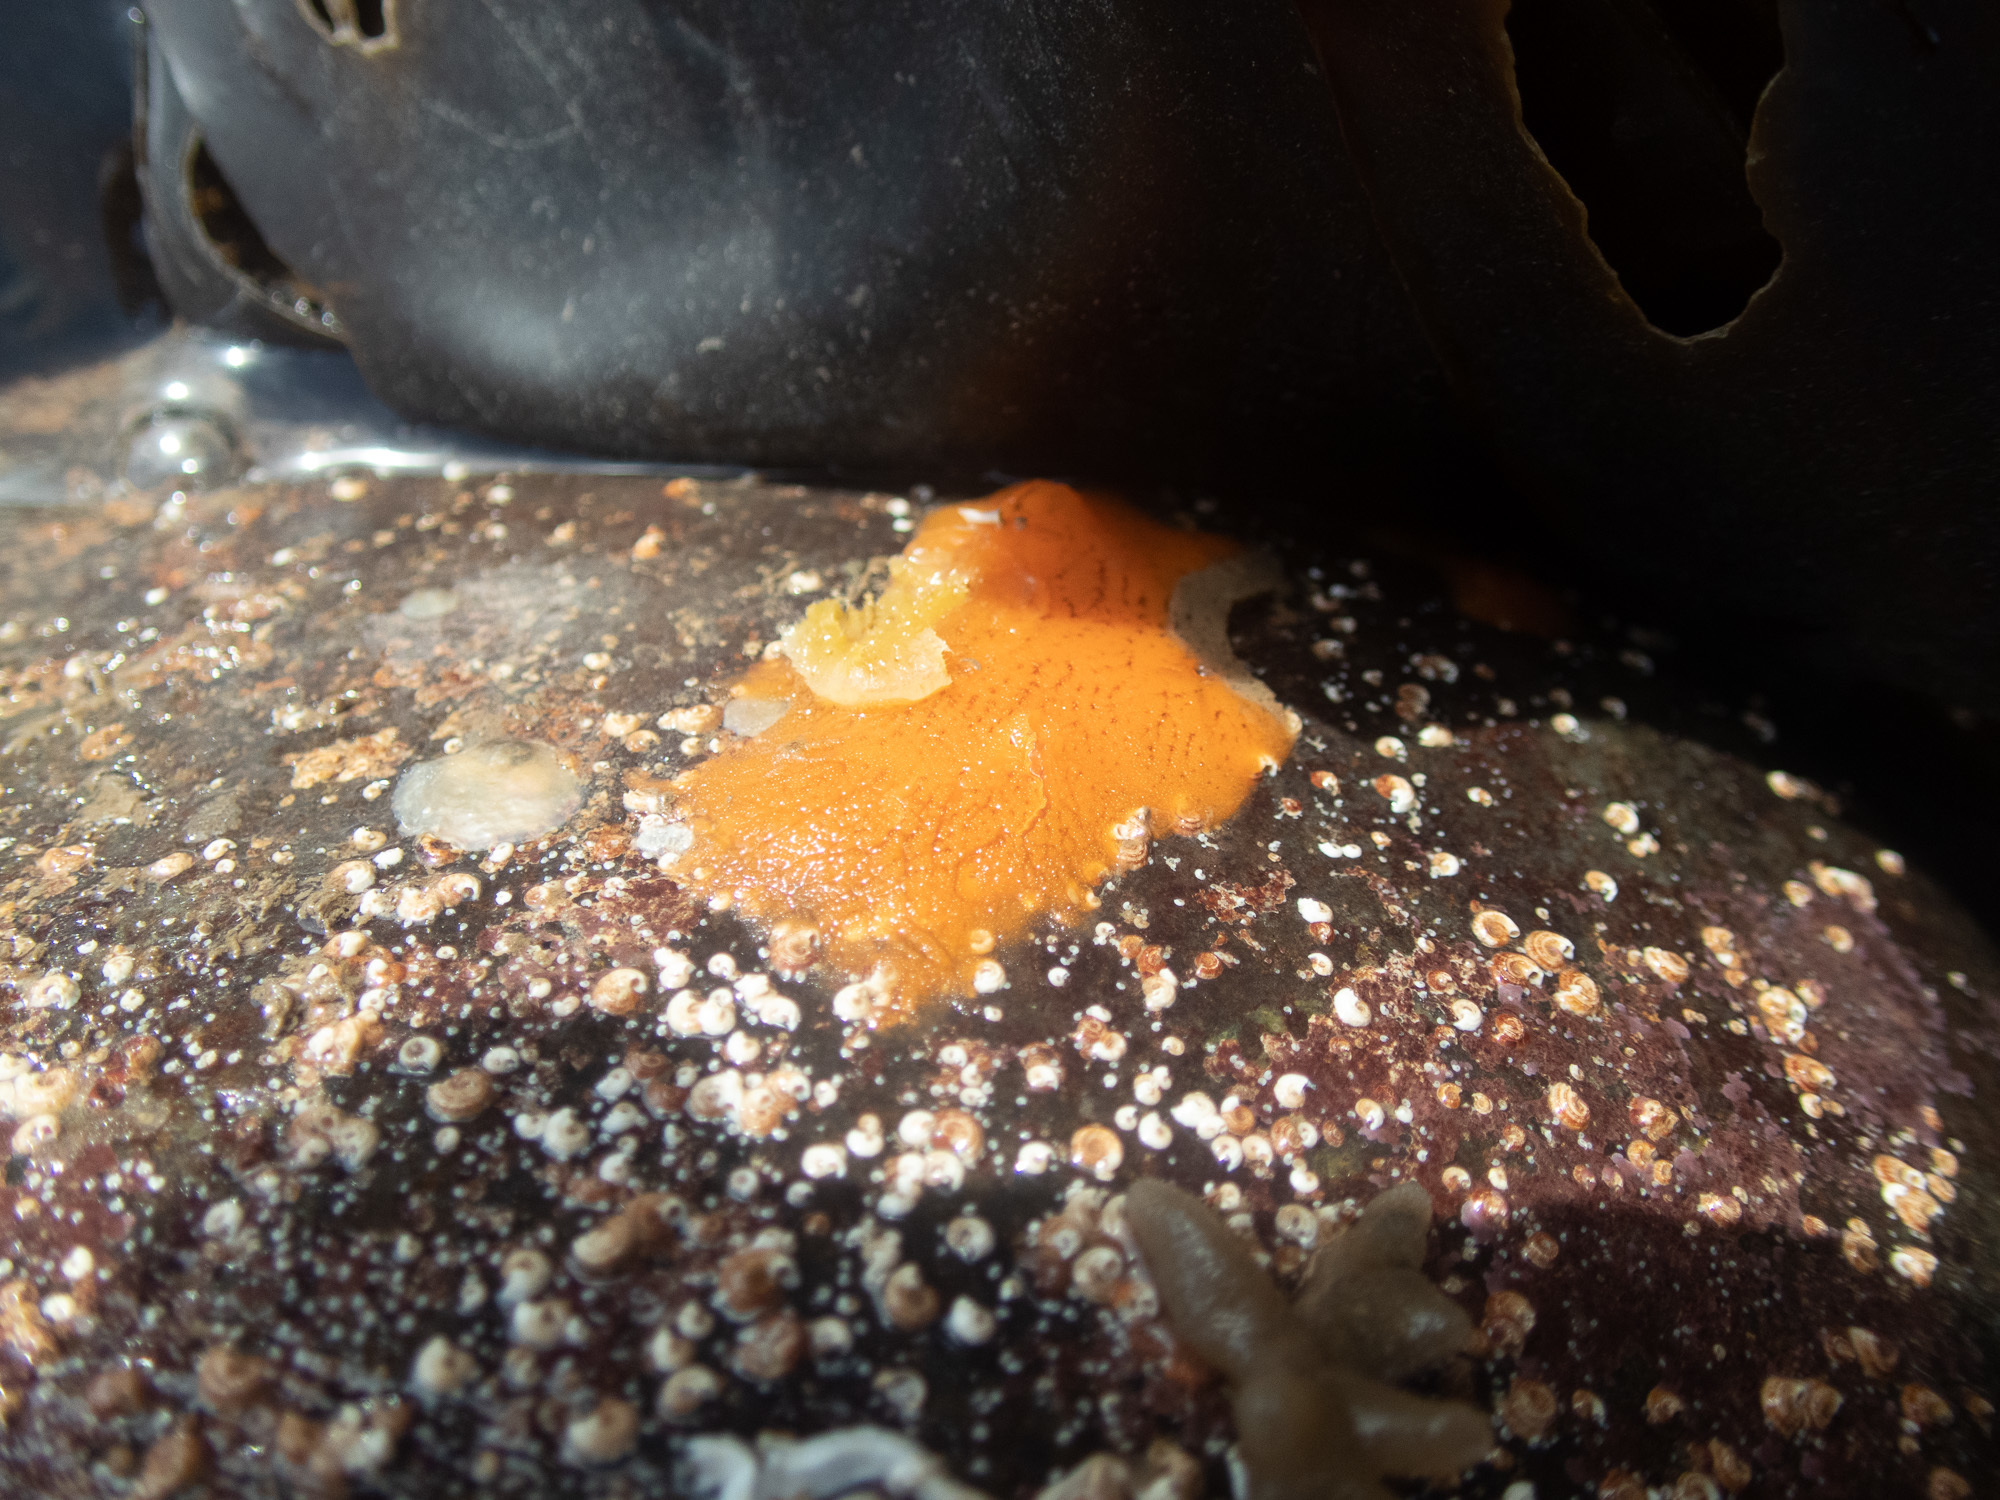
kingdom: Animalia
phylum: Porifera
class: Demospongiae
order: Poecilosclerida
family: Esperiopsidae
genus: Amphilectus
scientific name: Amphilectus fucorum
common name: Carrot-sponge
